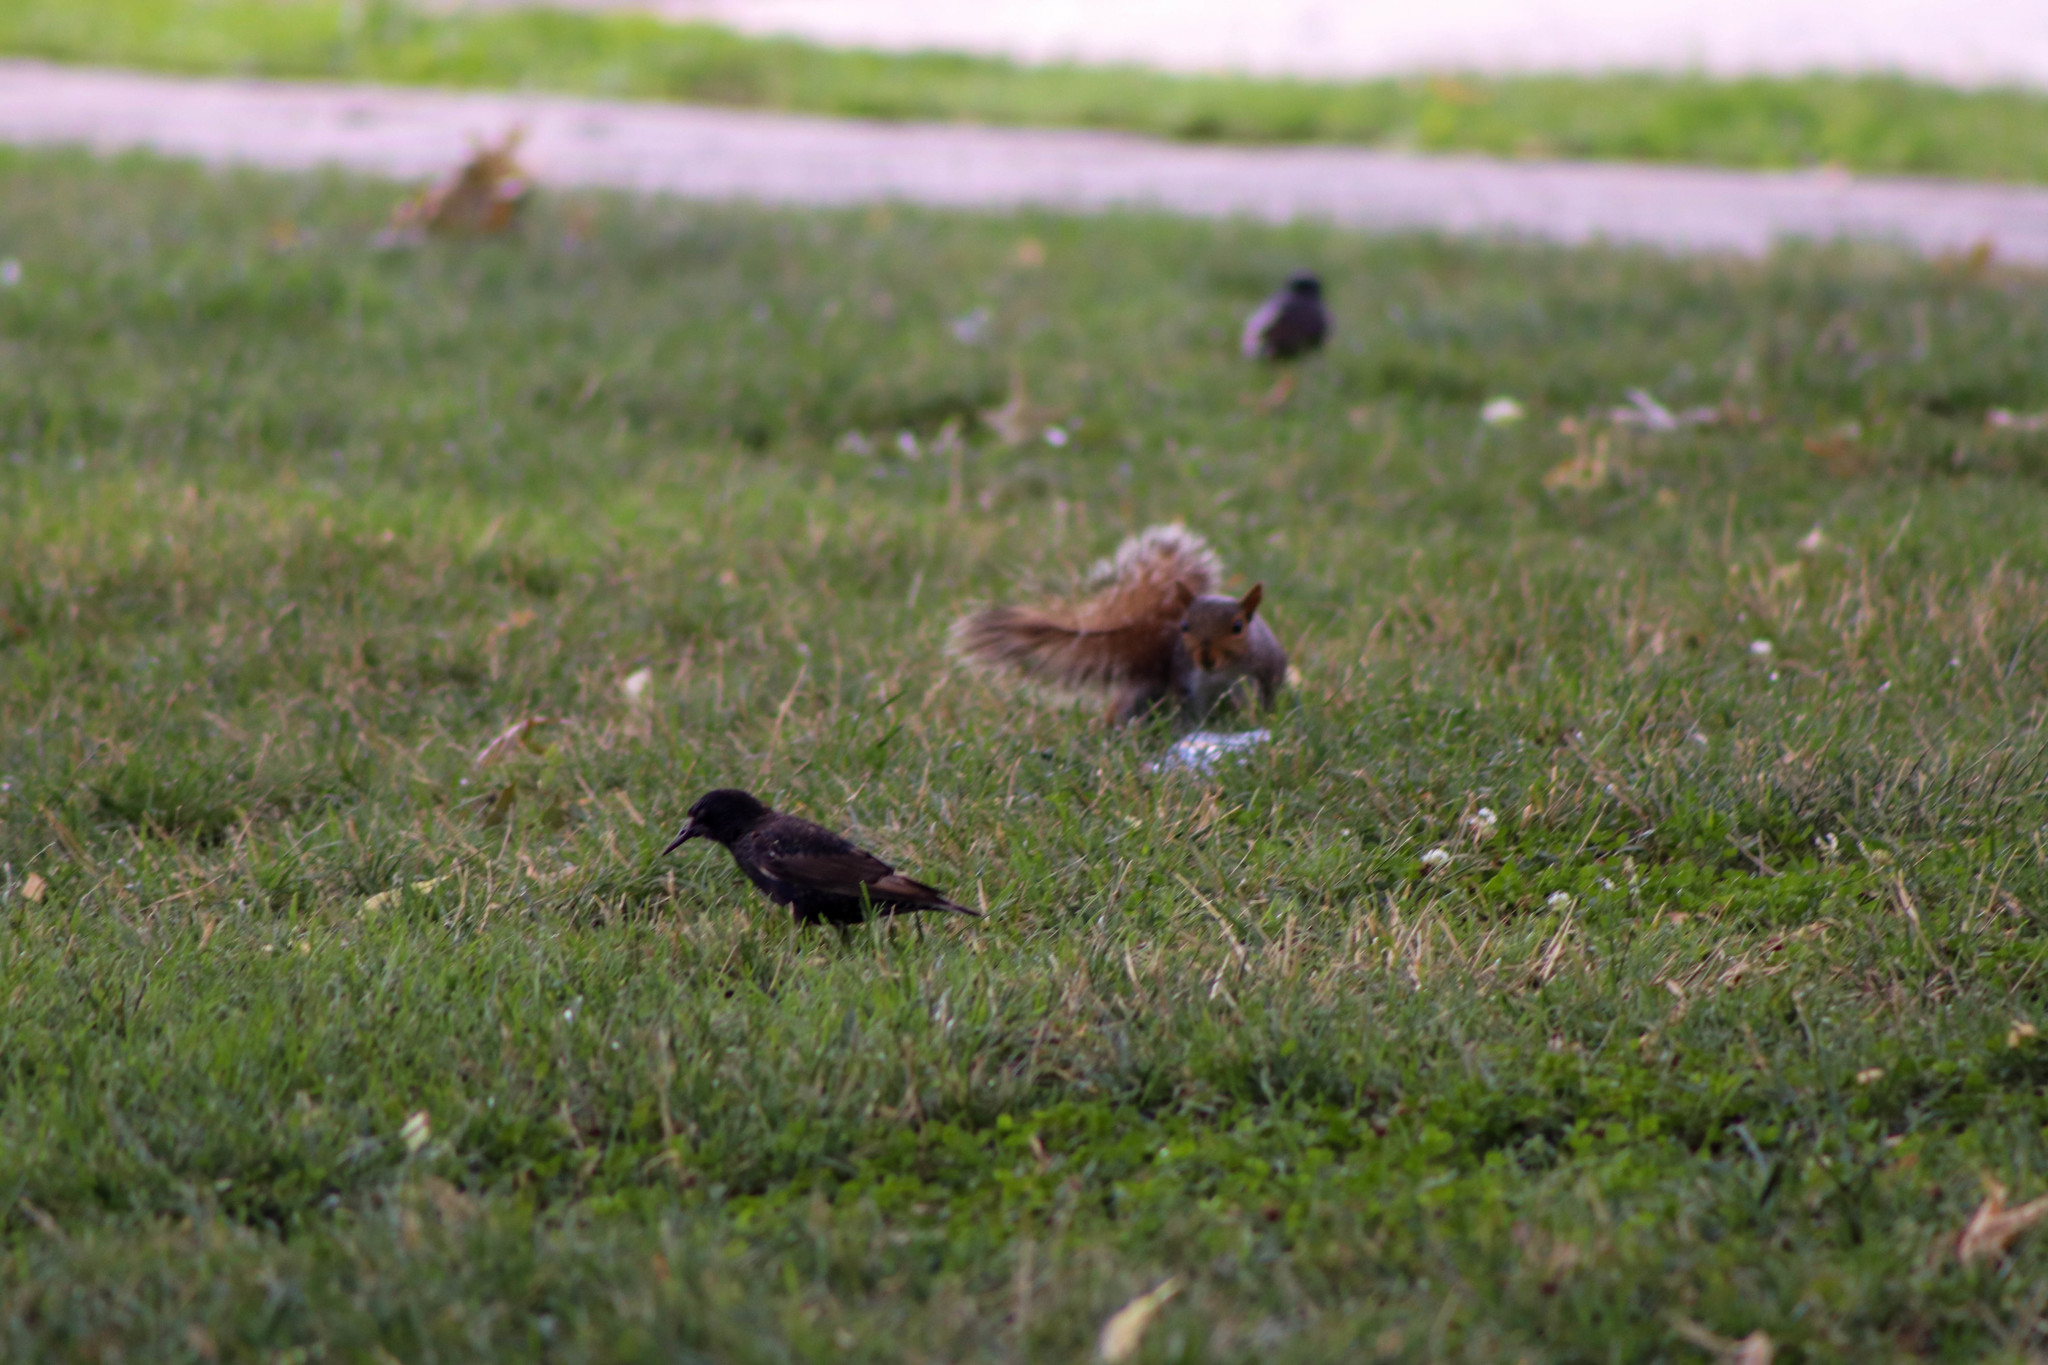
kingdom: Animalia
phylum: Chordata
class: Mammalia
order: Rodentia
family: Sciuridae
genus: Sciurus
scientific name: Sciurus carolinensis
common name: Eastern gray squirrel
